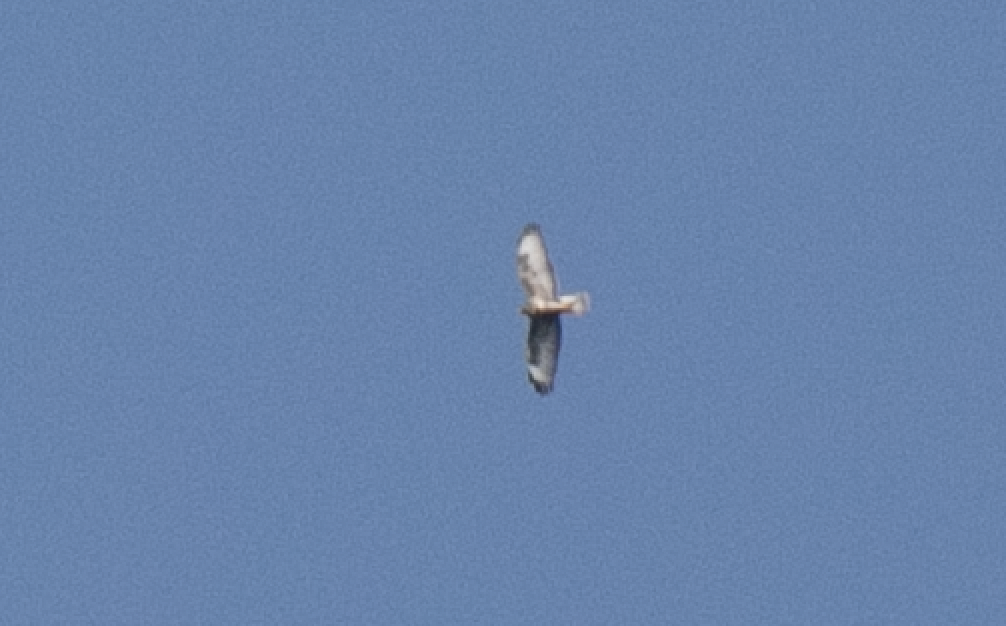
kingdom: Animalia
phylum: Chordata
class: Aves
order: Accipitriformes
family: Accipitridae
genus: Buteo
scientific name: Buteo buteo
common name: Common buzzard
